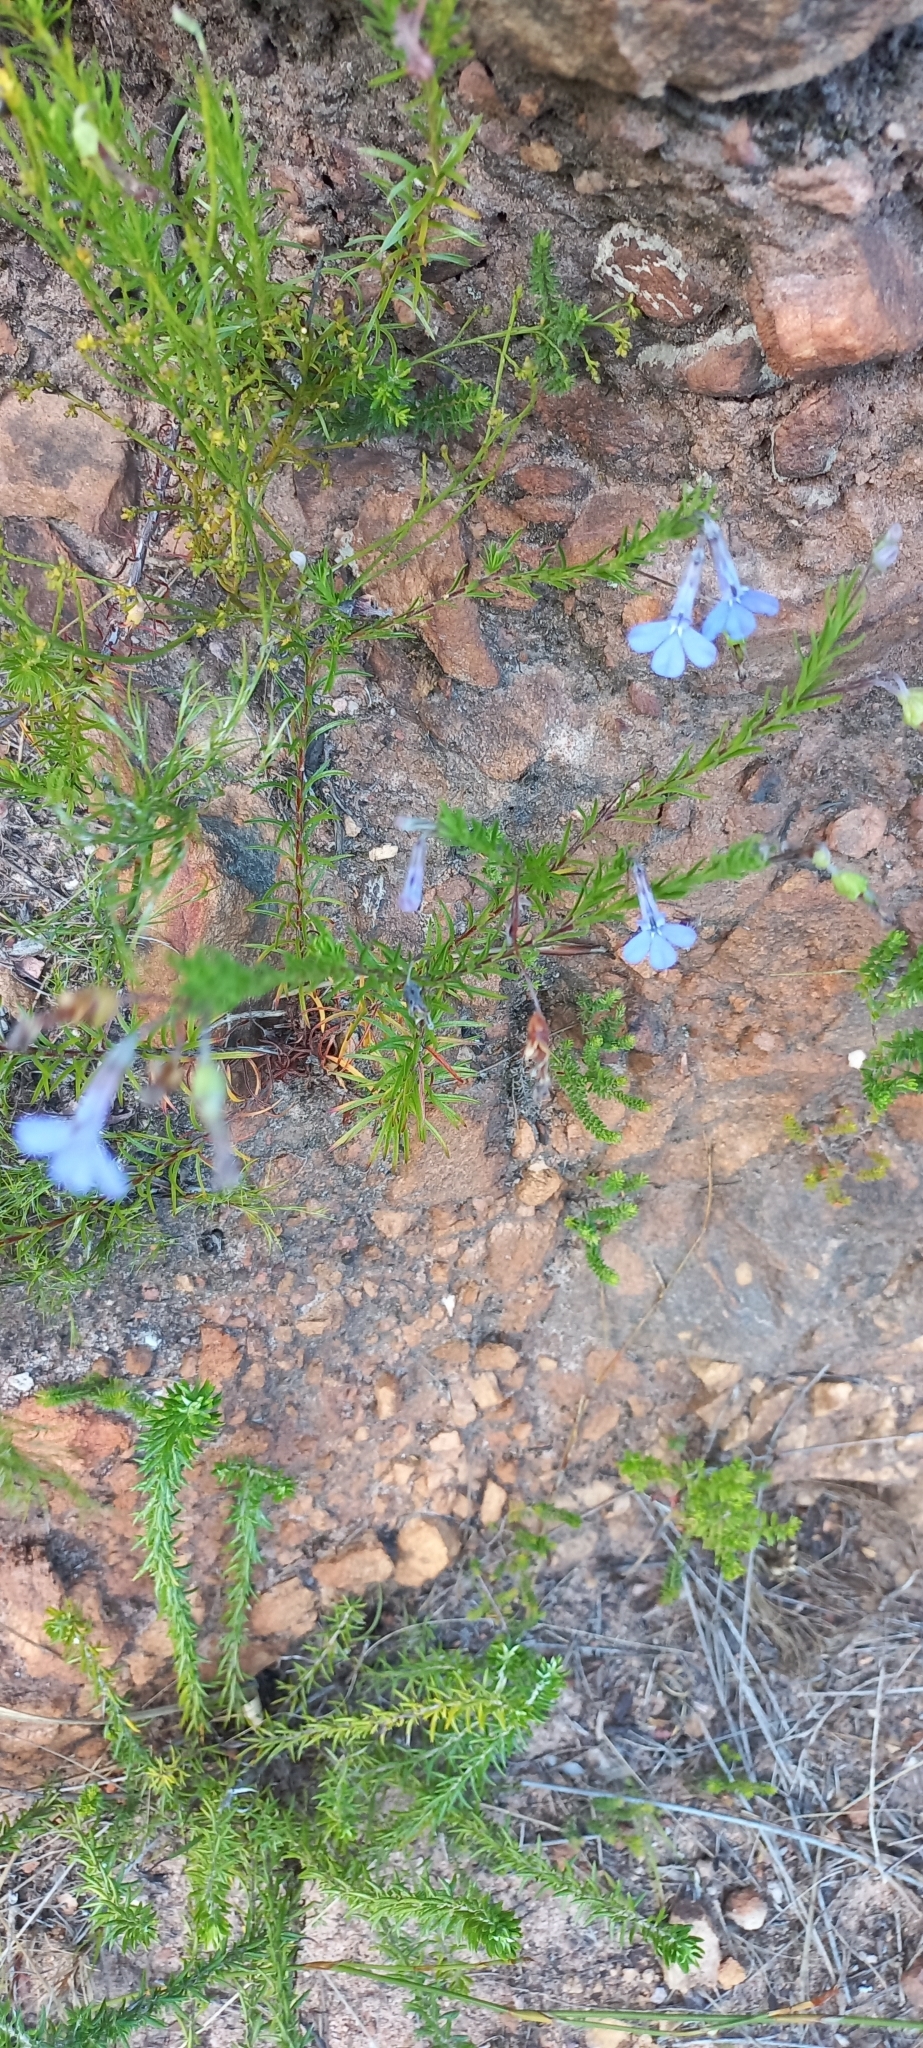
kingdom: Plantae
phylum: Tracheophyta
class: Magnoliopsida
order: Asterales
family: Campanulaceae
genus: Lobelia
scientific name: Lobelia pinifolia
